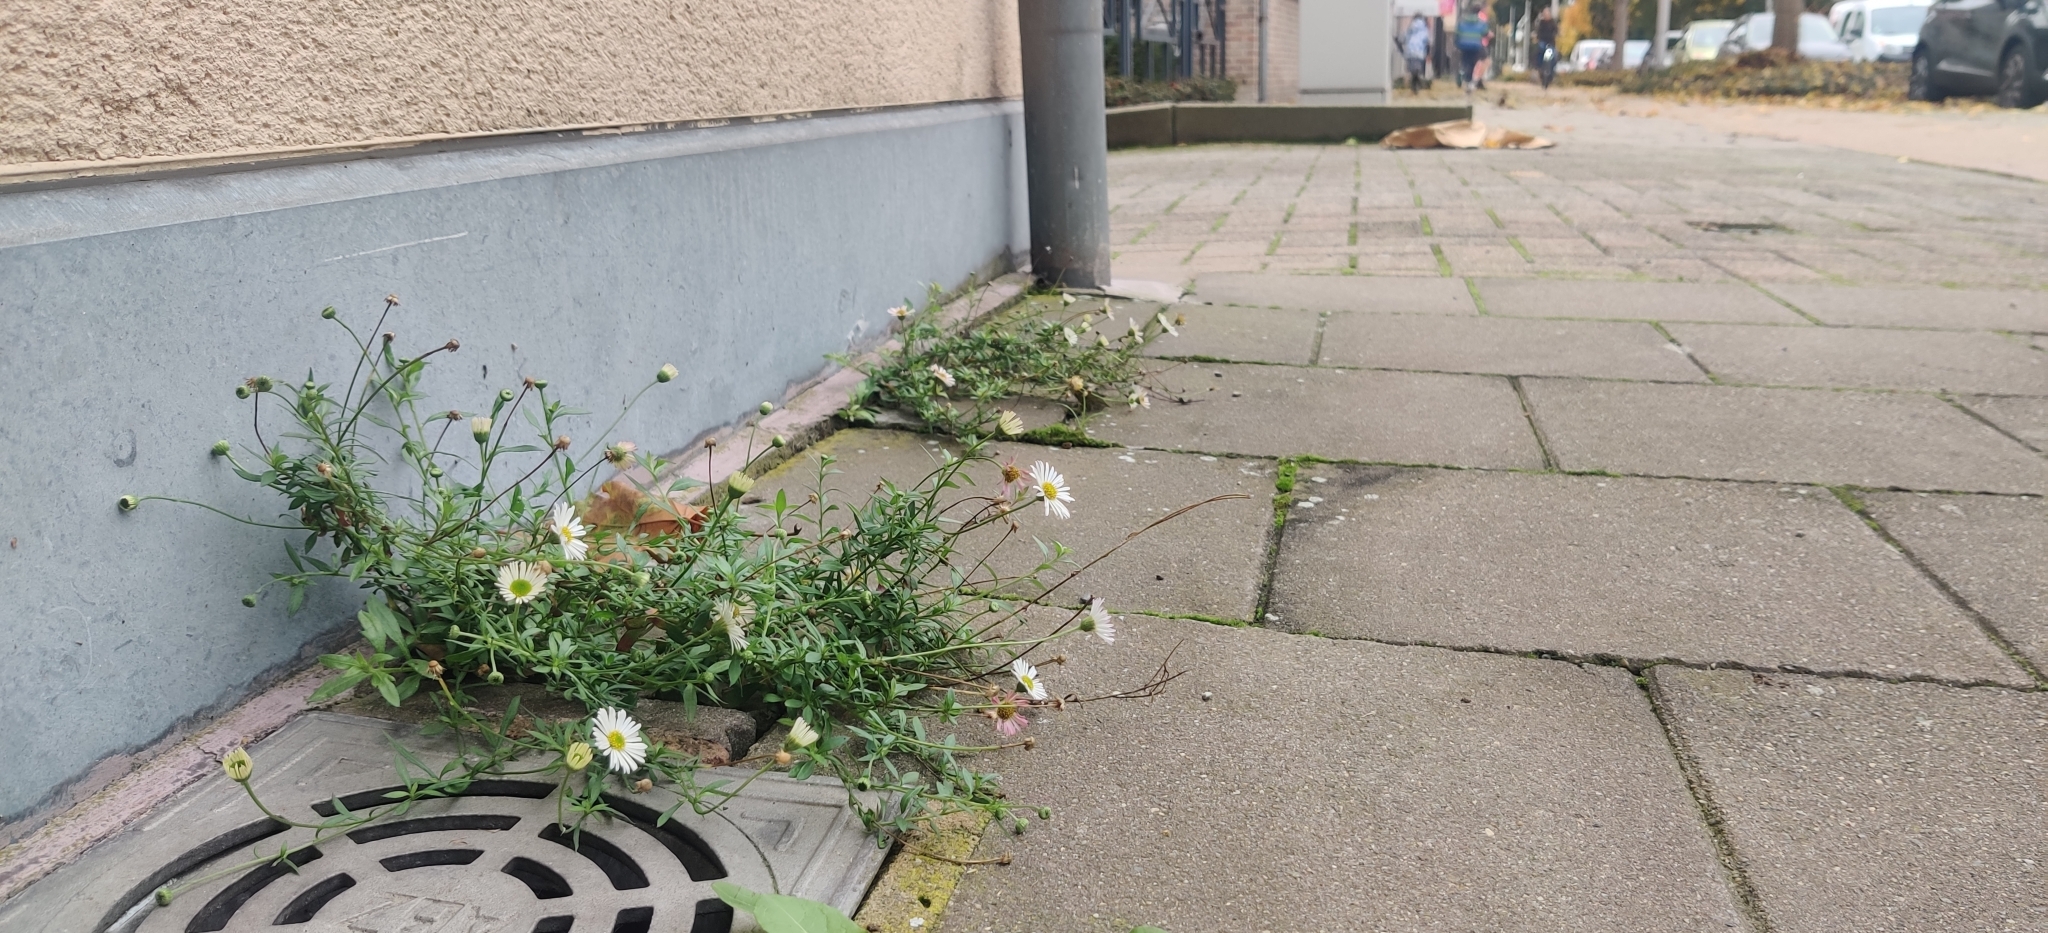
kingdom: Plantae
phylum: Tracheophyta
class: Magnoliopsida
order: Asterales
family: Asteraceae
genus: Erigeron
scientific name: Erigeron karvinskianus
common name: Mexican fleabane
